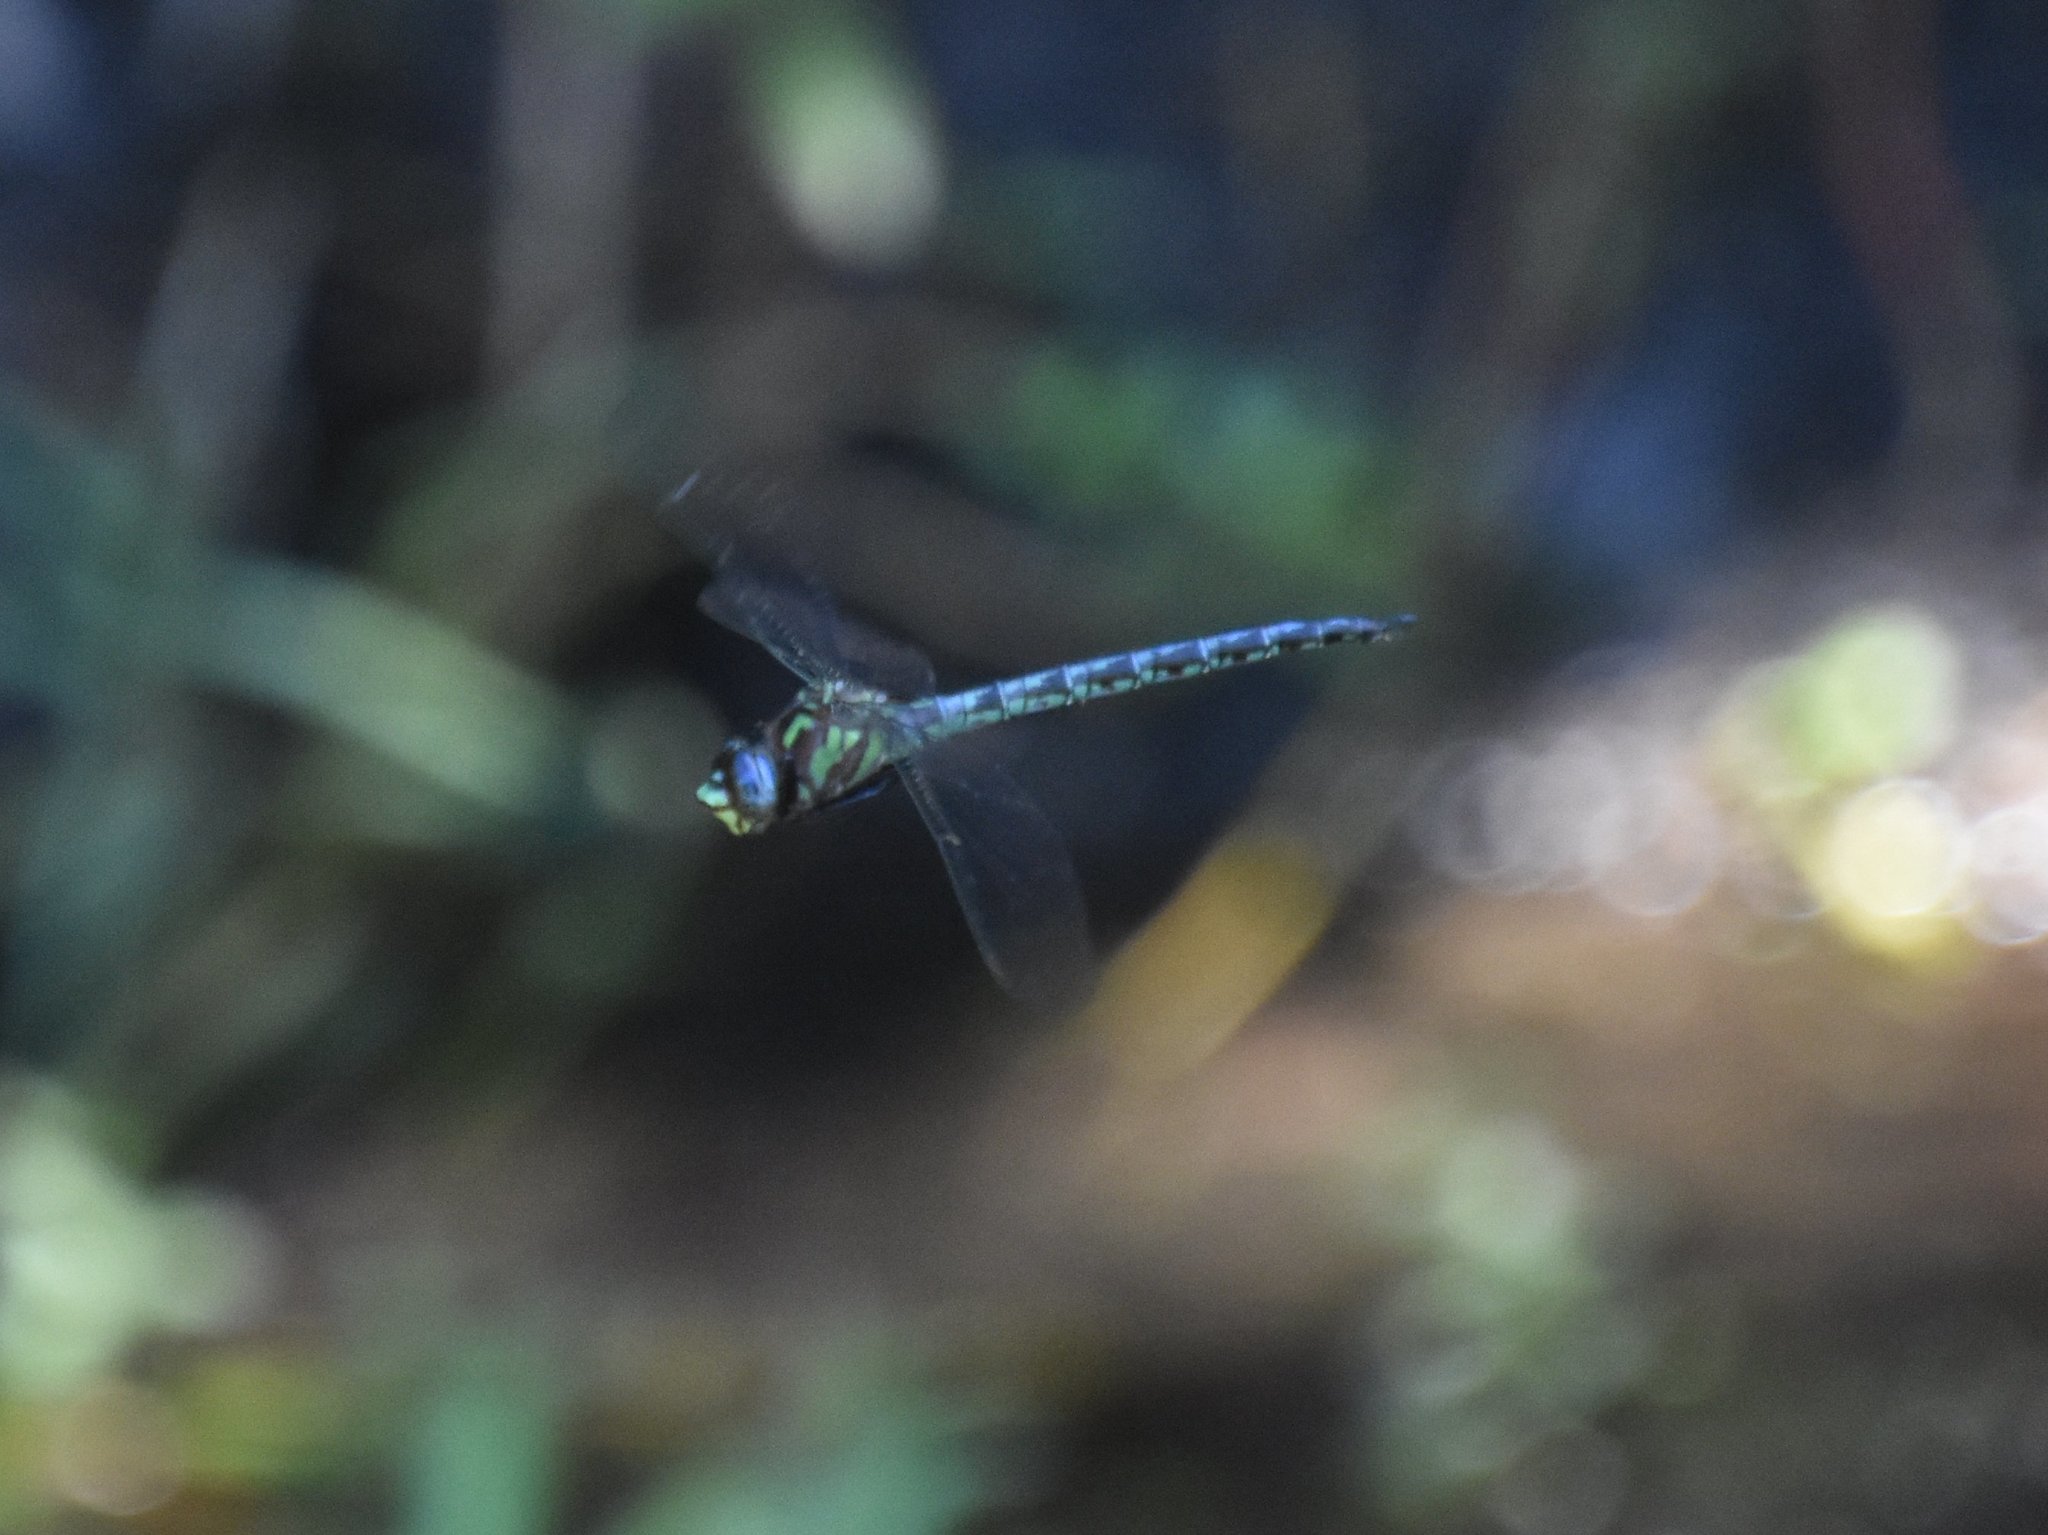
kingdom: Animalia
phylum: Arthropoda
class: Insecta
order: Odonata
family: Aeshnidae
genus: Nasiaeschna
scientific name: Nasiaeschna pentacantha
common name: Cyrano darner
